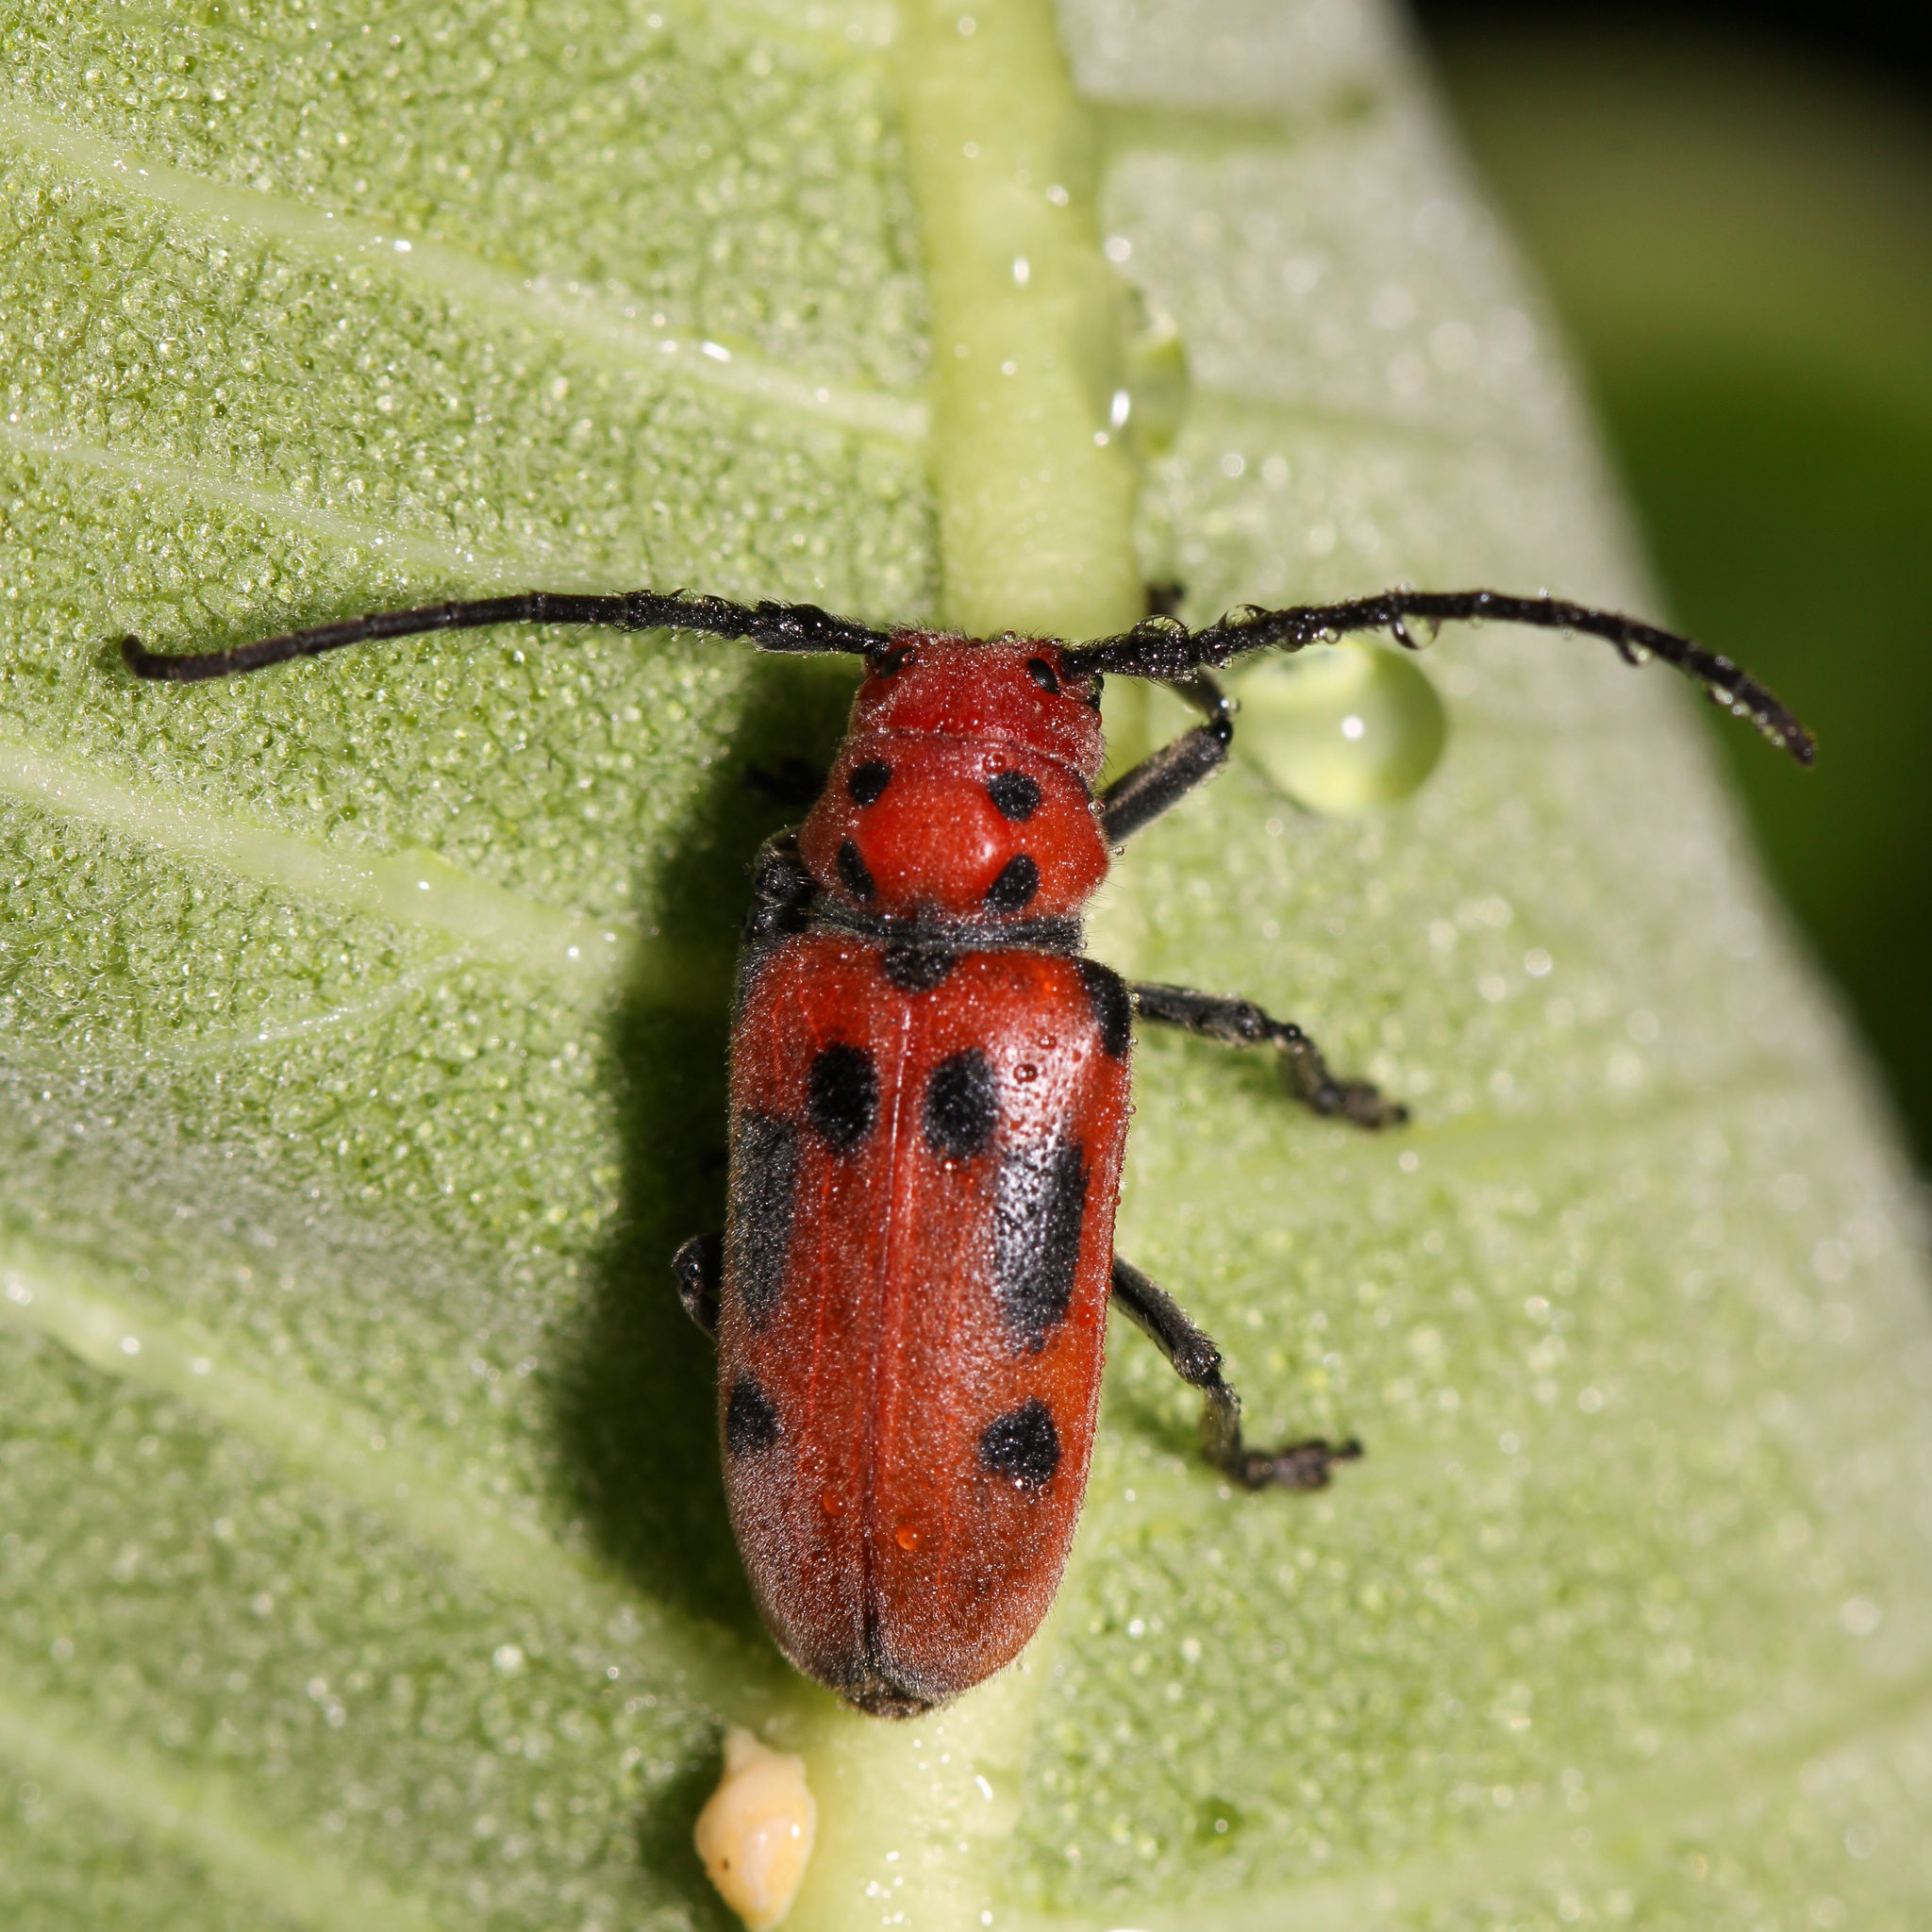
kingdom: Animalia
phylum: Arthropoda
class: Insecta
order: Coleoptera
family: Cerambycidae
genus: Tetraopes
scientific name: Tetraopes tetrophthalmus
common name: Red milkweed beetle
